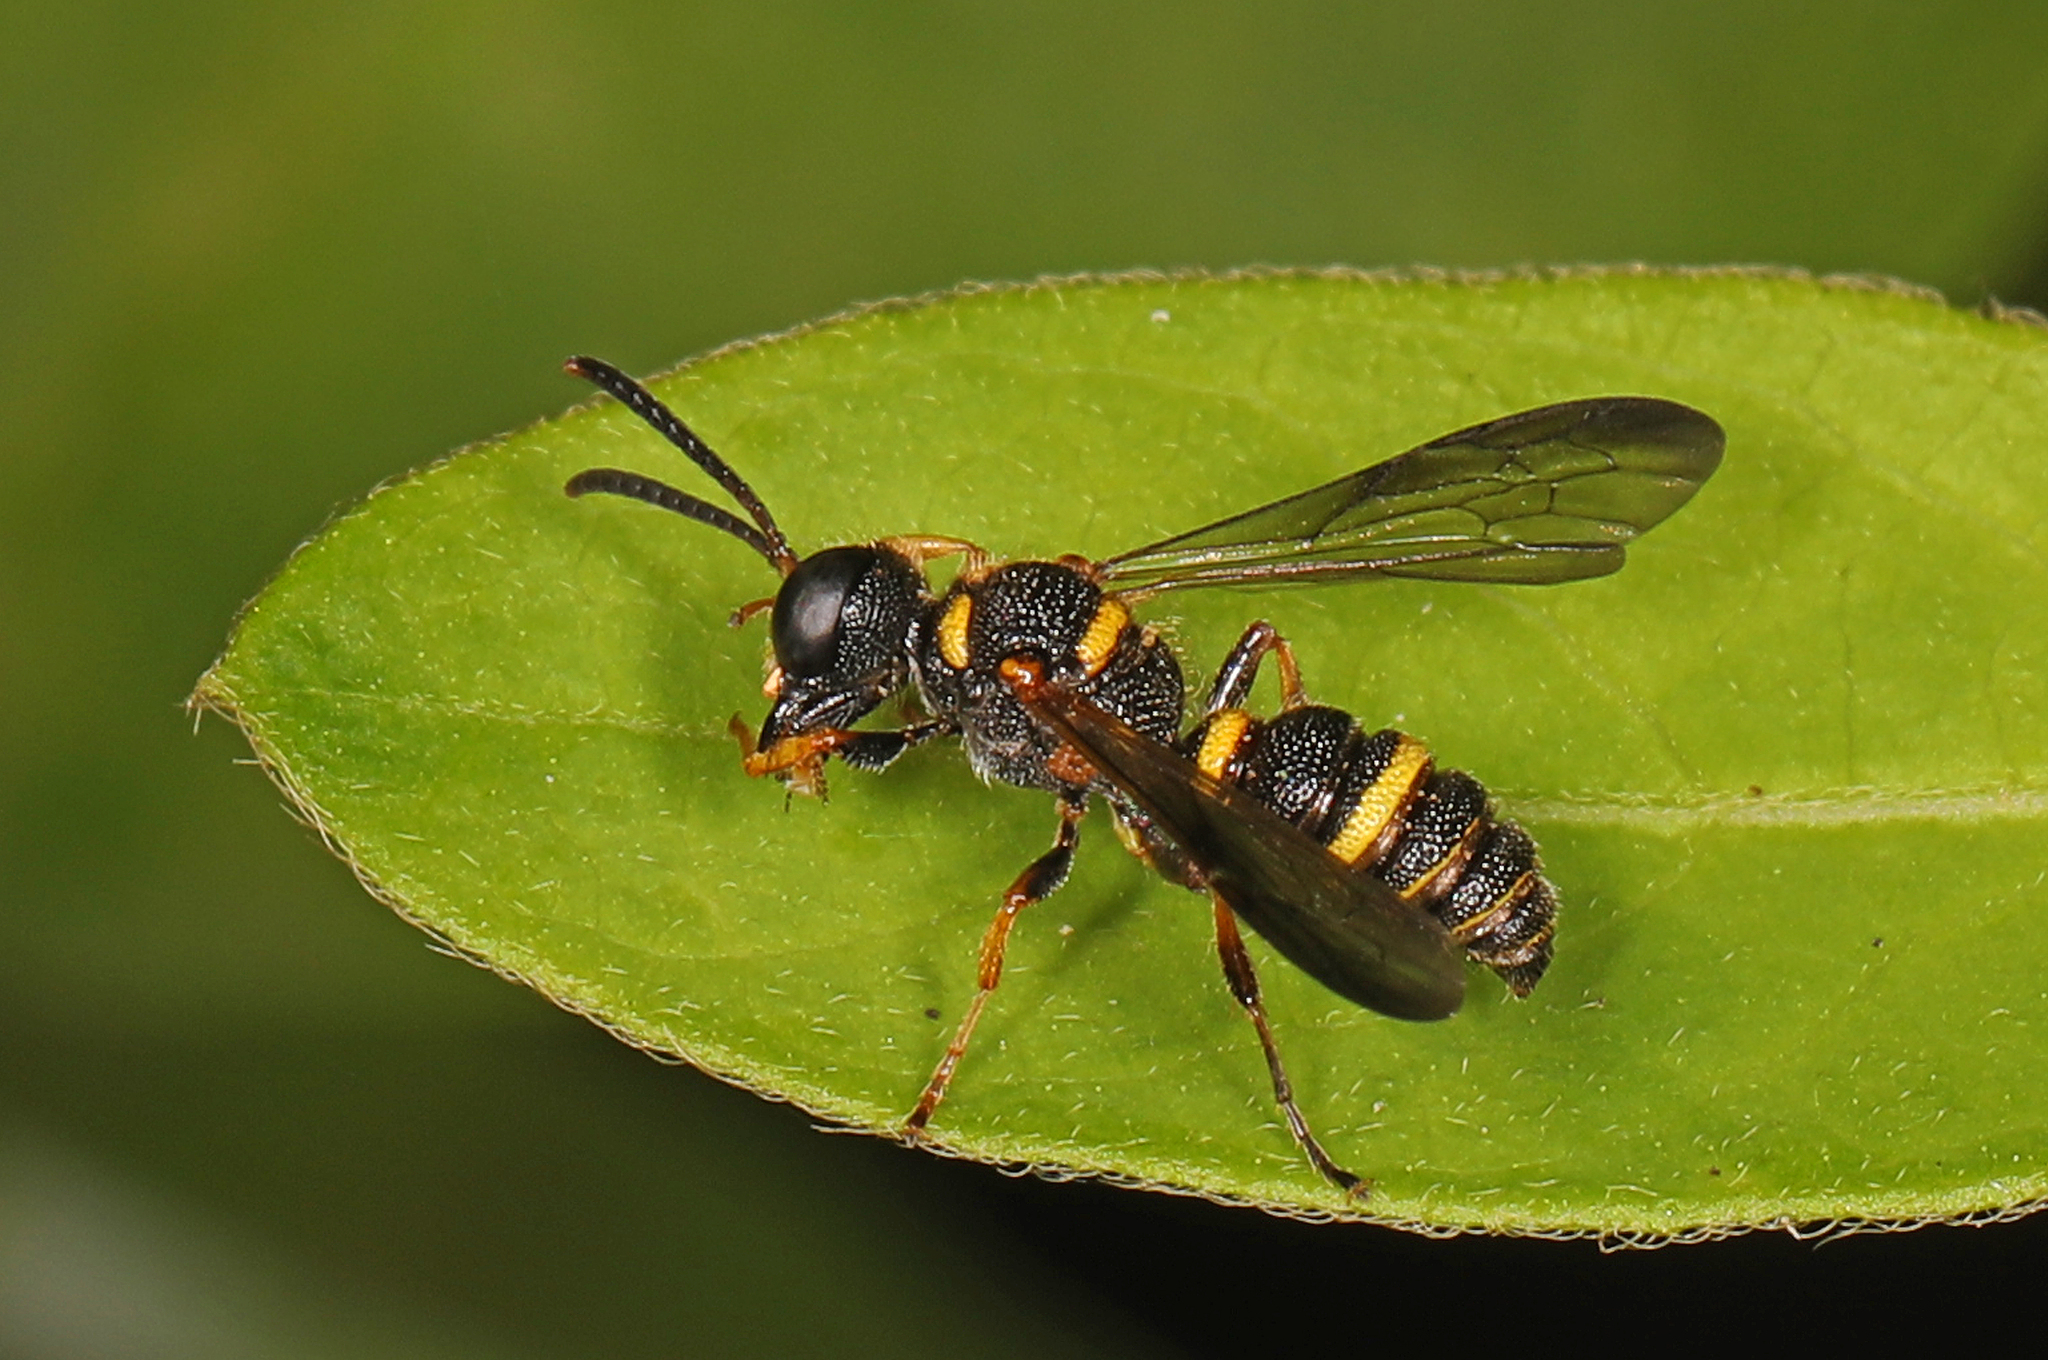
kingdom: Animalia
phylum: Arthropoda
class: Insecta
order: Hymenoptera
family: Crabronidae
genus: Cerceris
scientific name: Cerceris insolita
